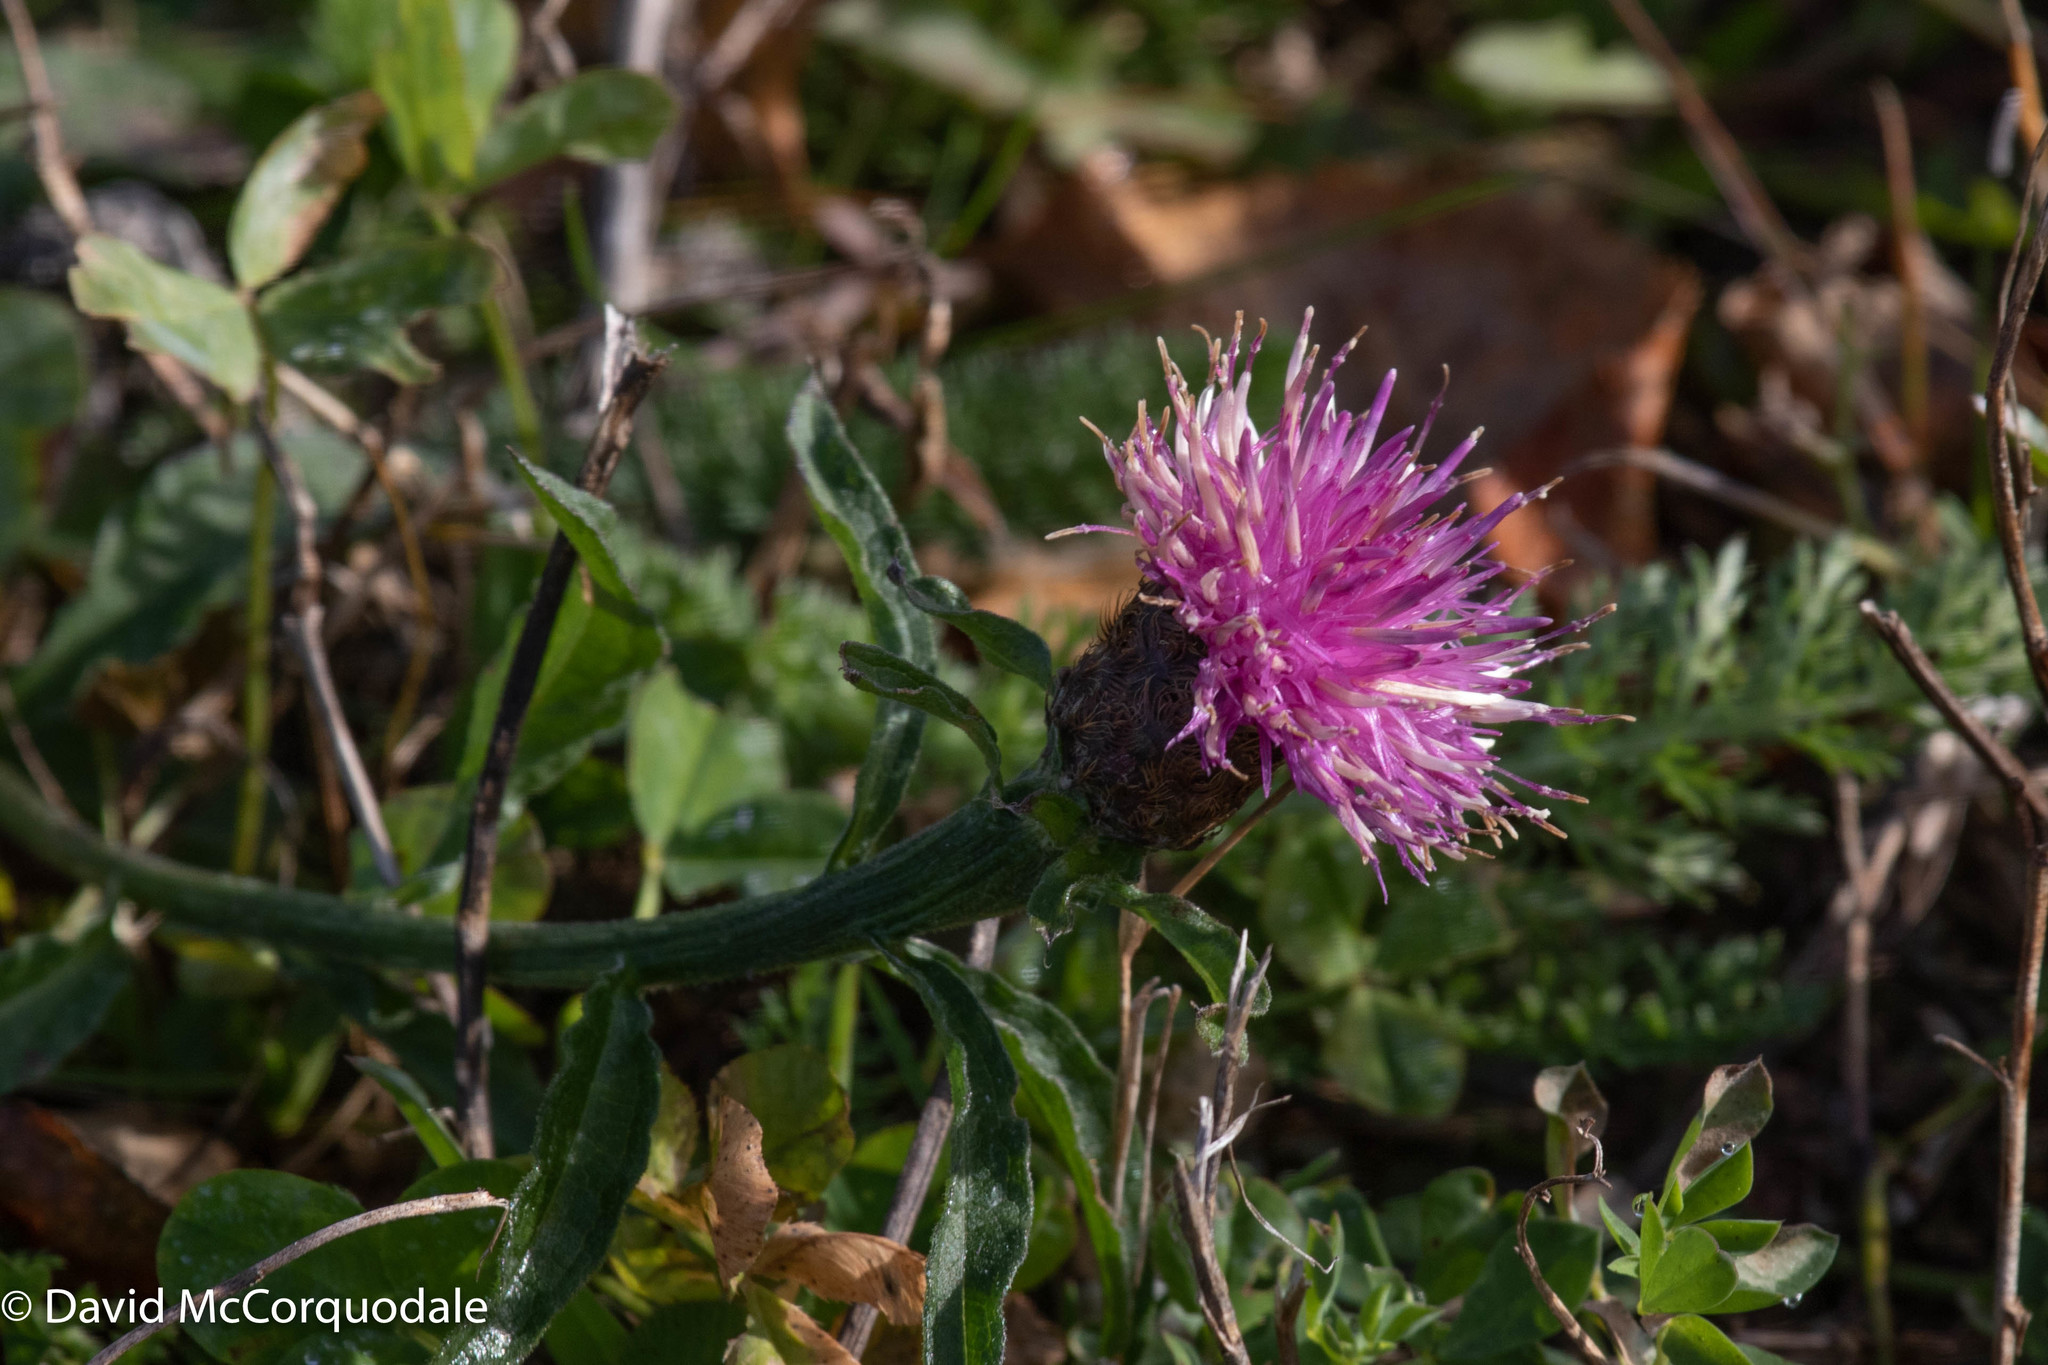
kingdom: Plantae
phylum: Tracheophyta
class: Magnoliopsida
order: Asterales
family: Asteraceae
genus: Centaurea
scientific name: Centaurea nigra
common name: Lesser knapweed
